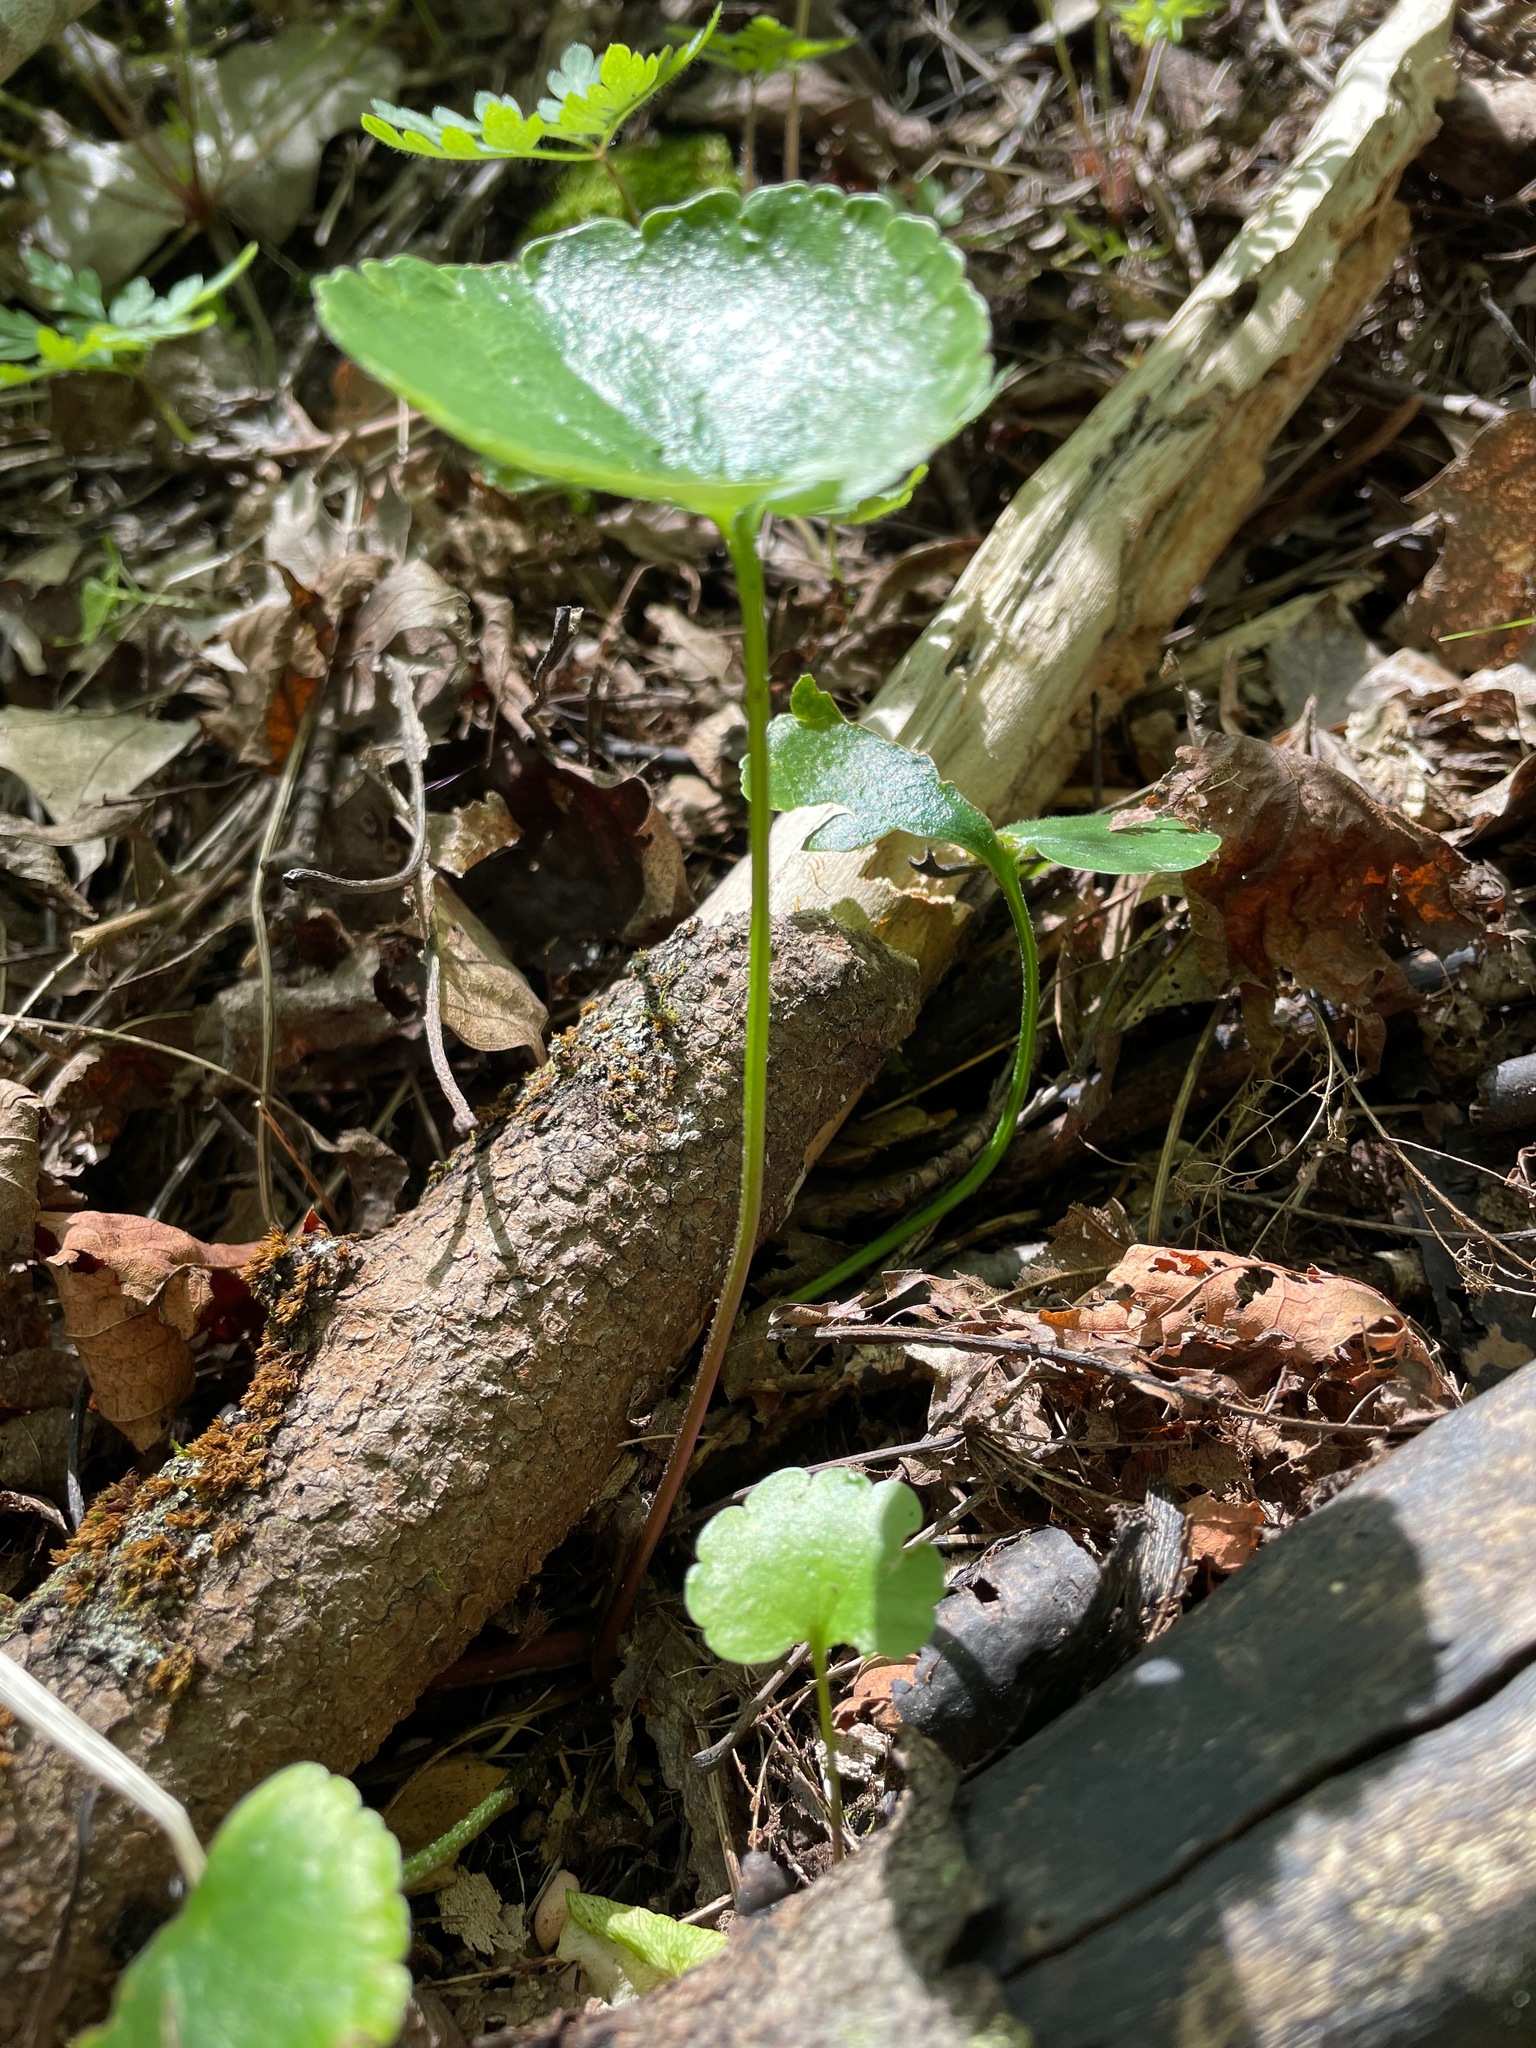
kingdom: Plantae
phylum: Tracheophyta
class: Magnoliopsida
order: Ranunculales
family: Ranunculaceae
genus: Ranunculus
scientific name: Ranunculus abortivus
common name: Early wood buttercup
